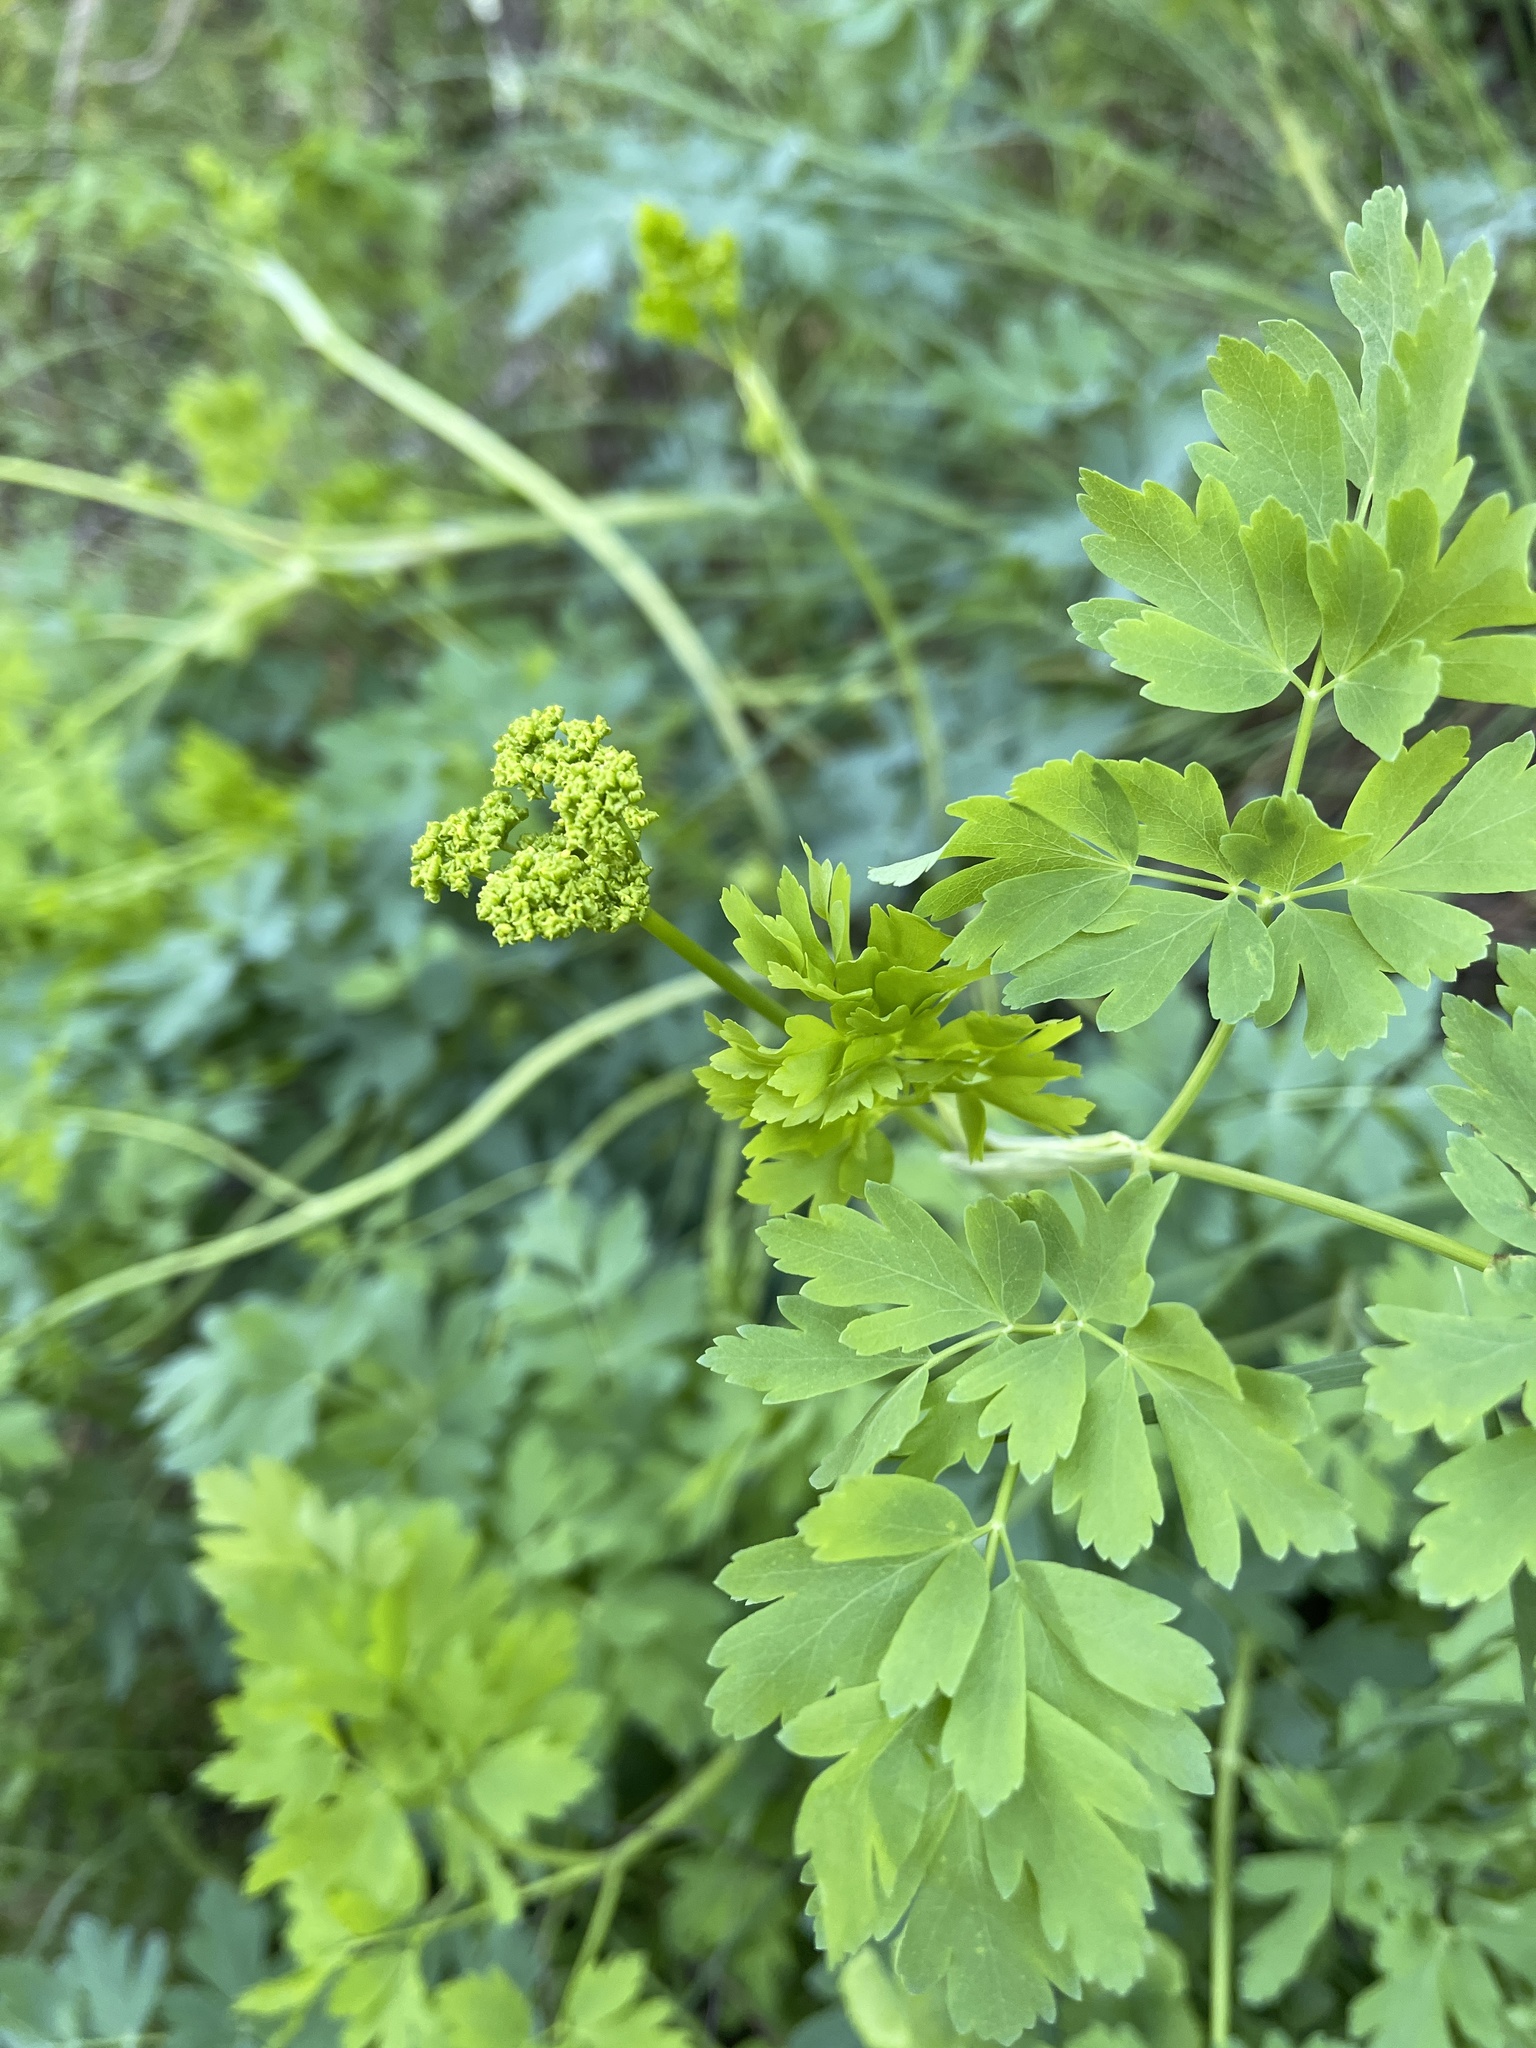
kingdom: Plantae
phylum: Tracheophyta
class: Magnoliopsida
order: Apiales
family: Apiaceae
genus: Lomatium
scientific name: Lomatium californicum
